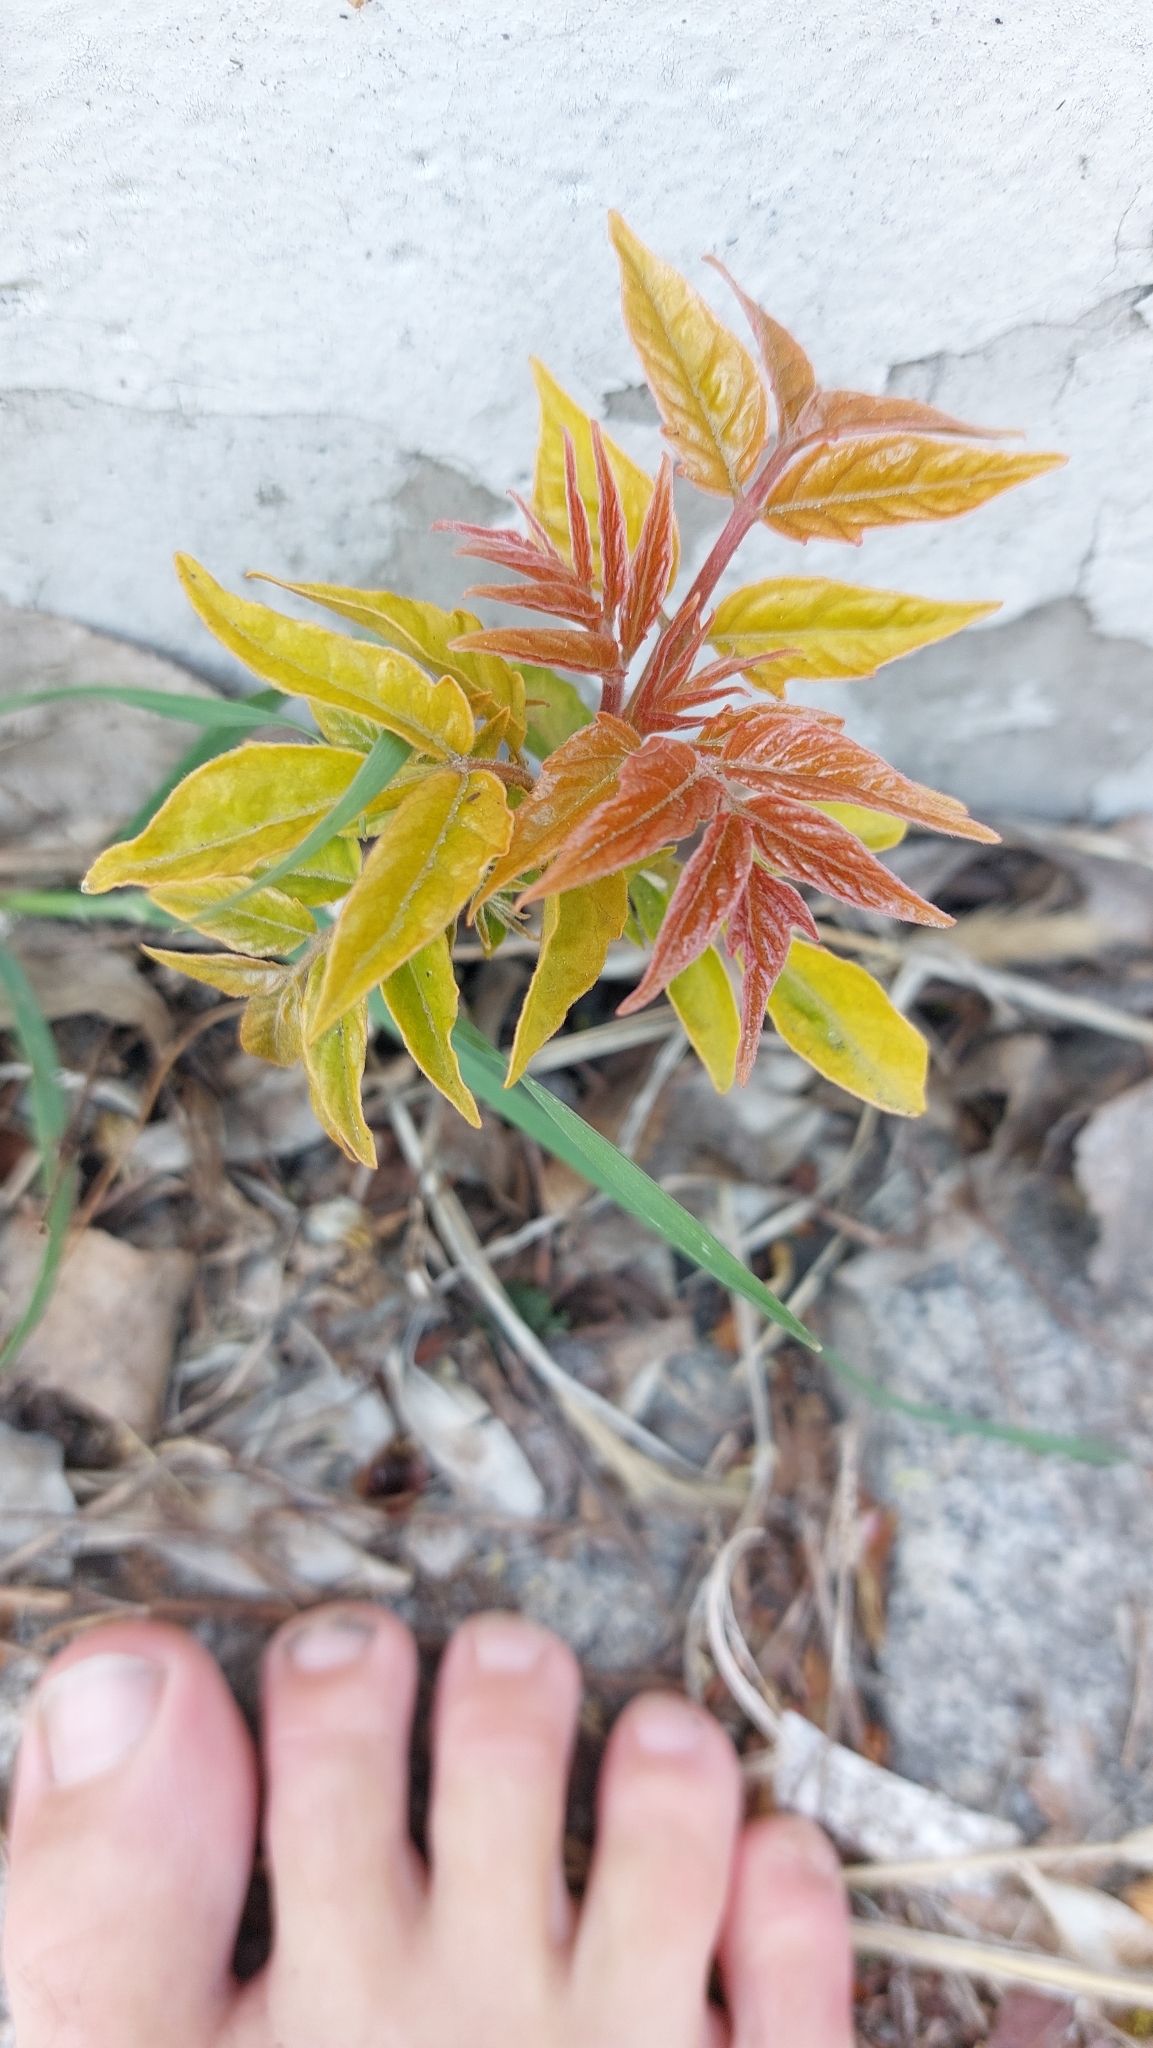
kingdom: Plantae
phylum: Tracheophyta
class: Magnoliopsida
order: Sapindales
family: Simaroubaceae
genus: Ailanthus
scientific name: Ailanthus altissima
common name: Tree-of-heaven
